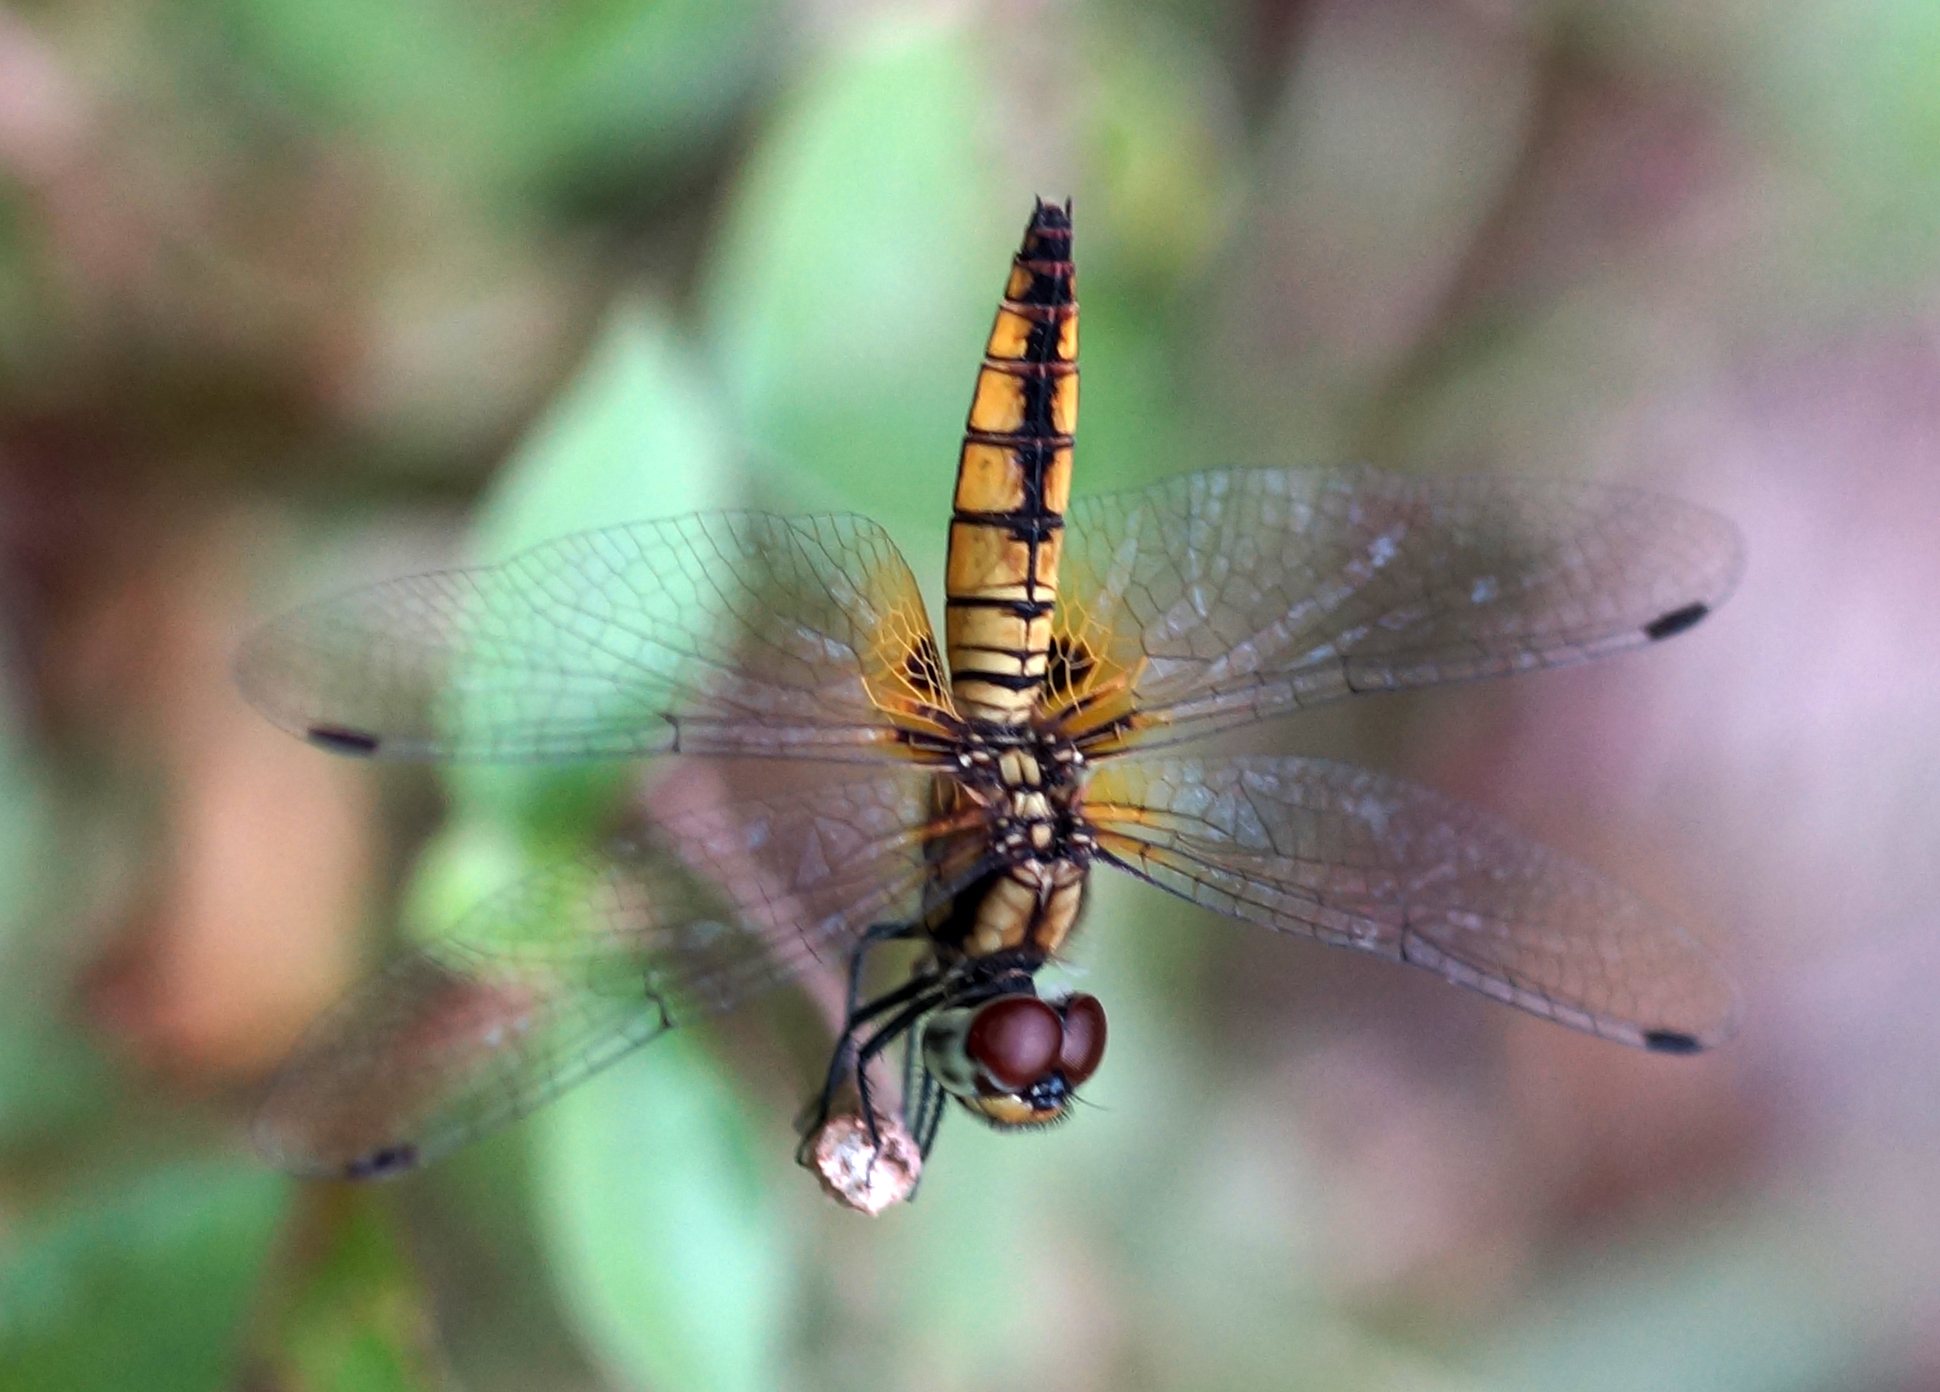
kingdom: Animalia
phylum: Arthropoda
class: Insecta
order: Odonata
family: Libellulidae
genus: Aethriamanta
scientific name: Aethriamanta brevipennis
